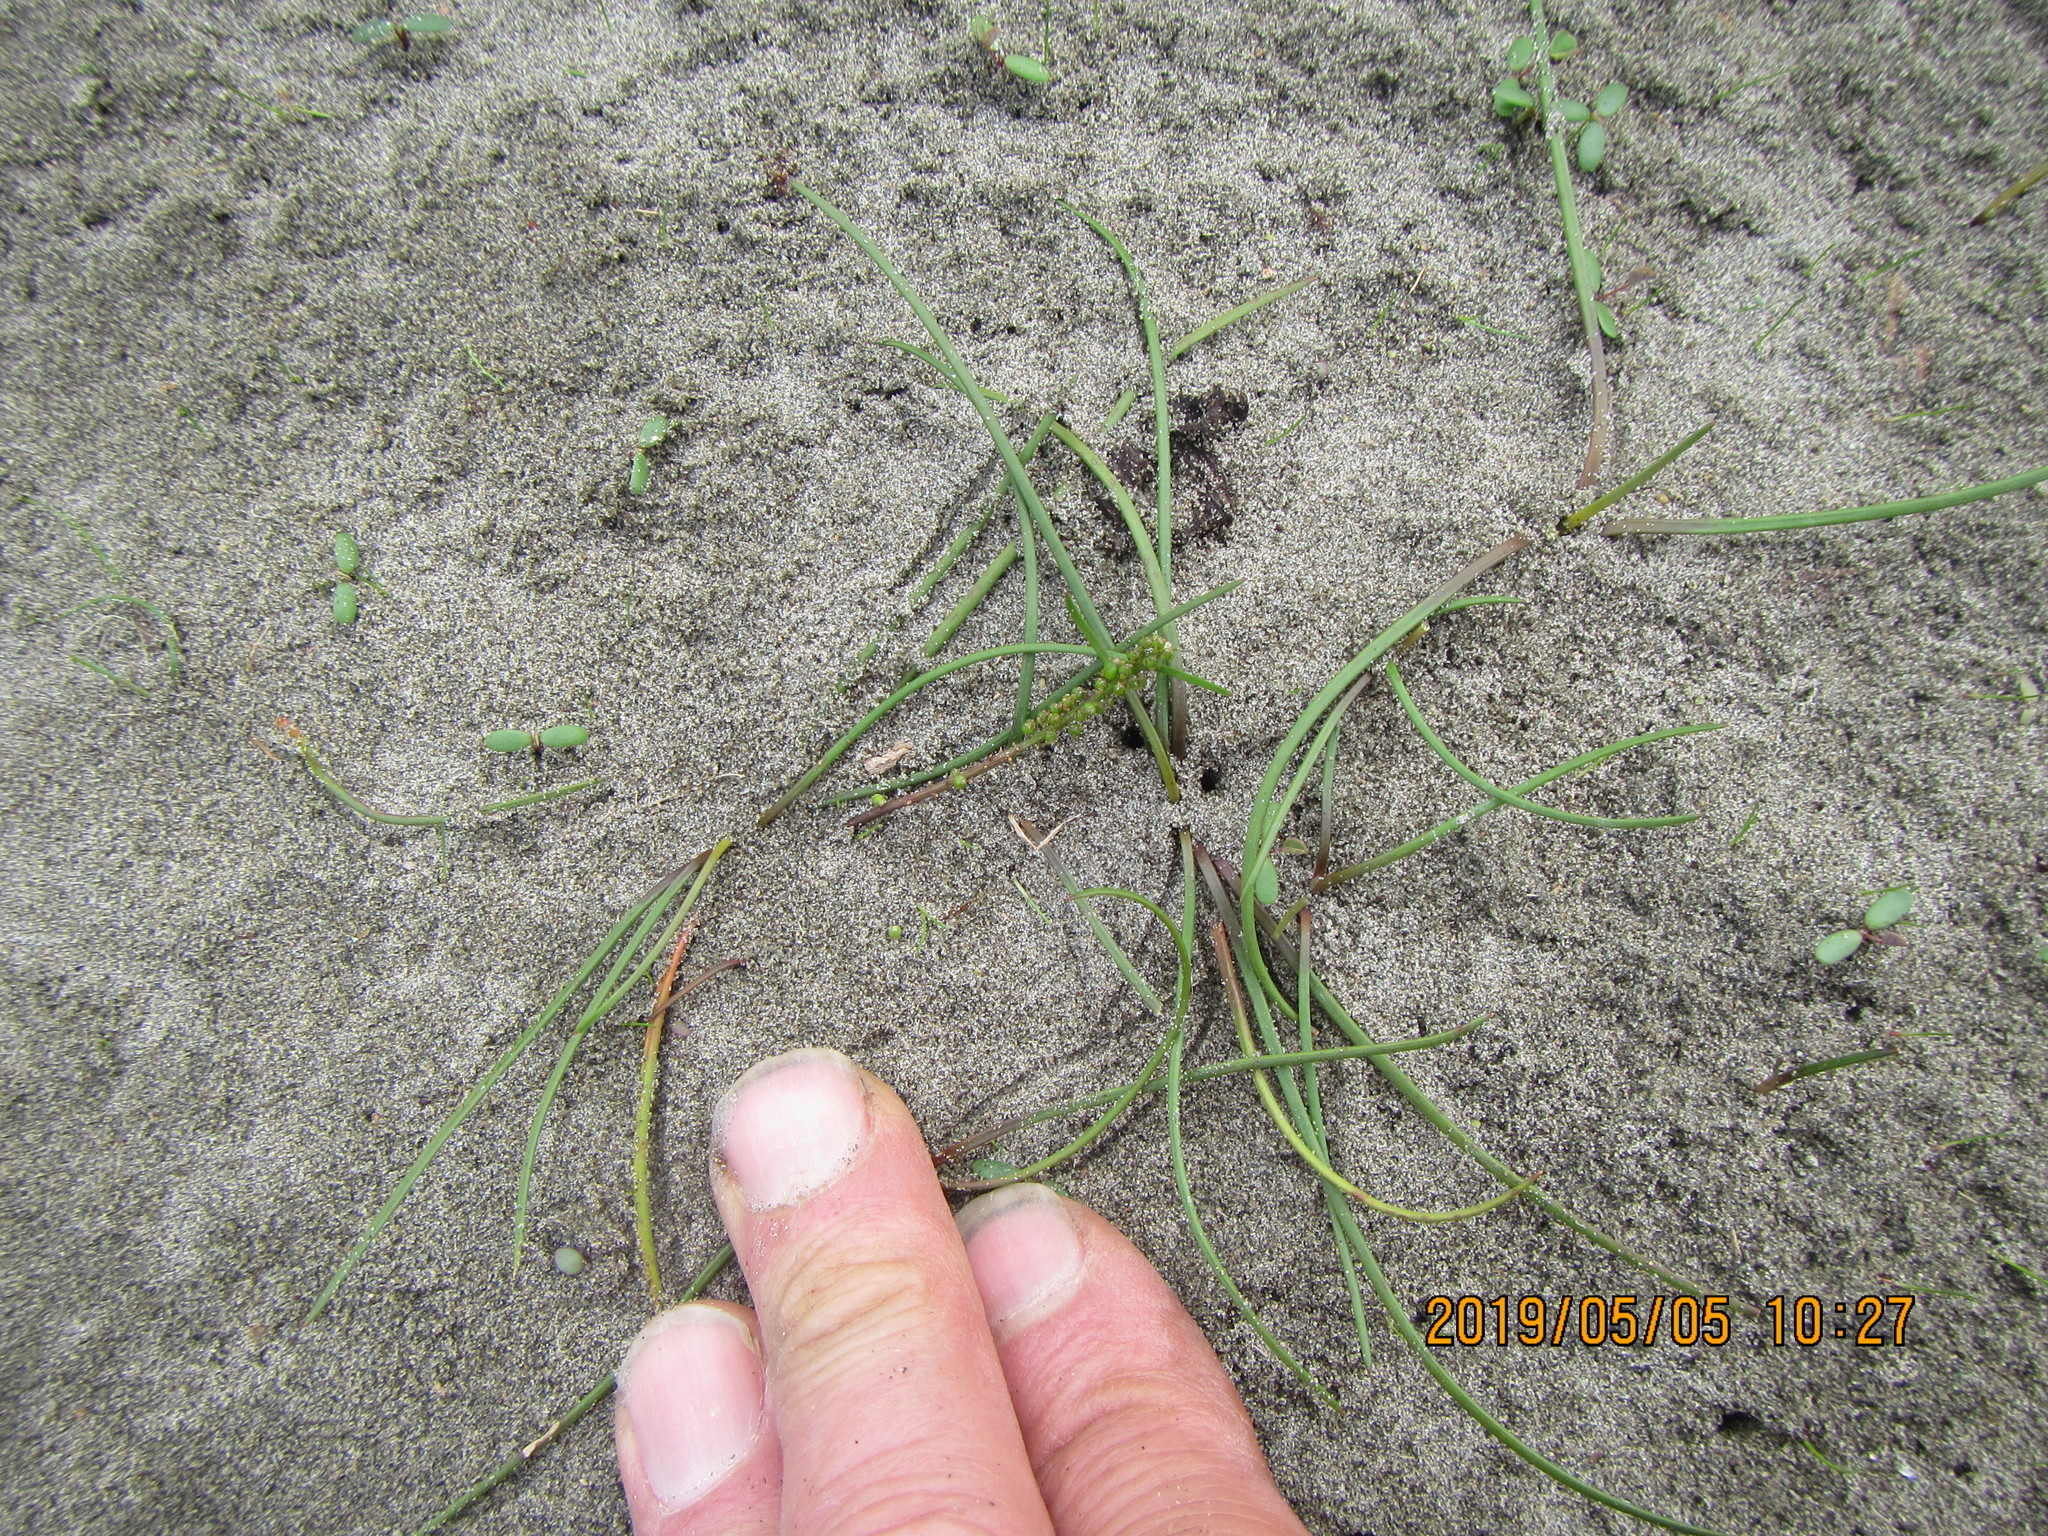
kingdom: Plantae
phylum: Tracheophyta
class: Liliopsida
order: Alismatales
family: Juncaginaceae
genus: Triglochin
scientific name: Triglochin striata
